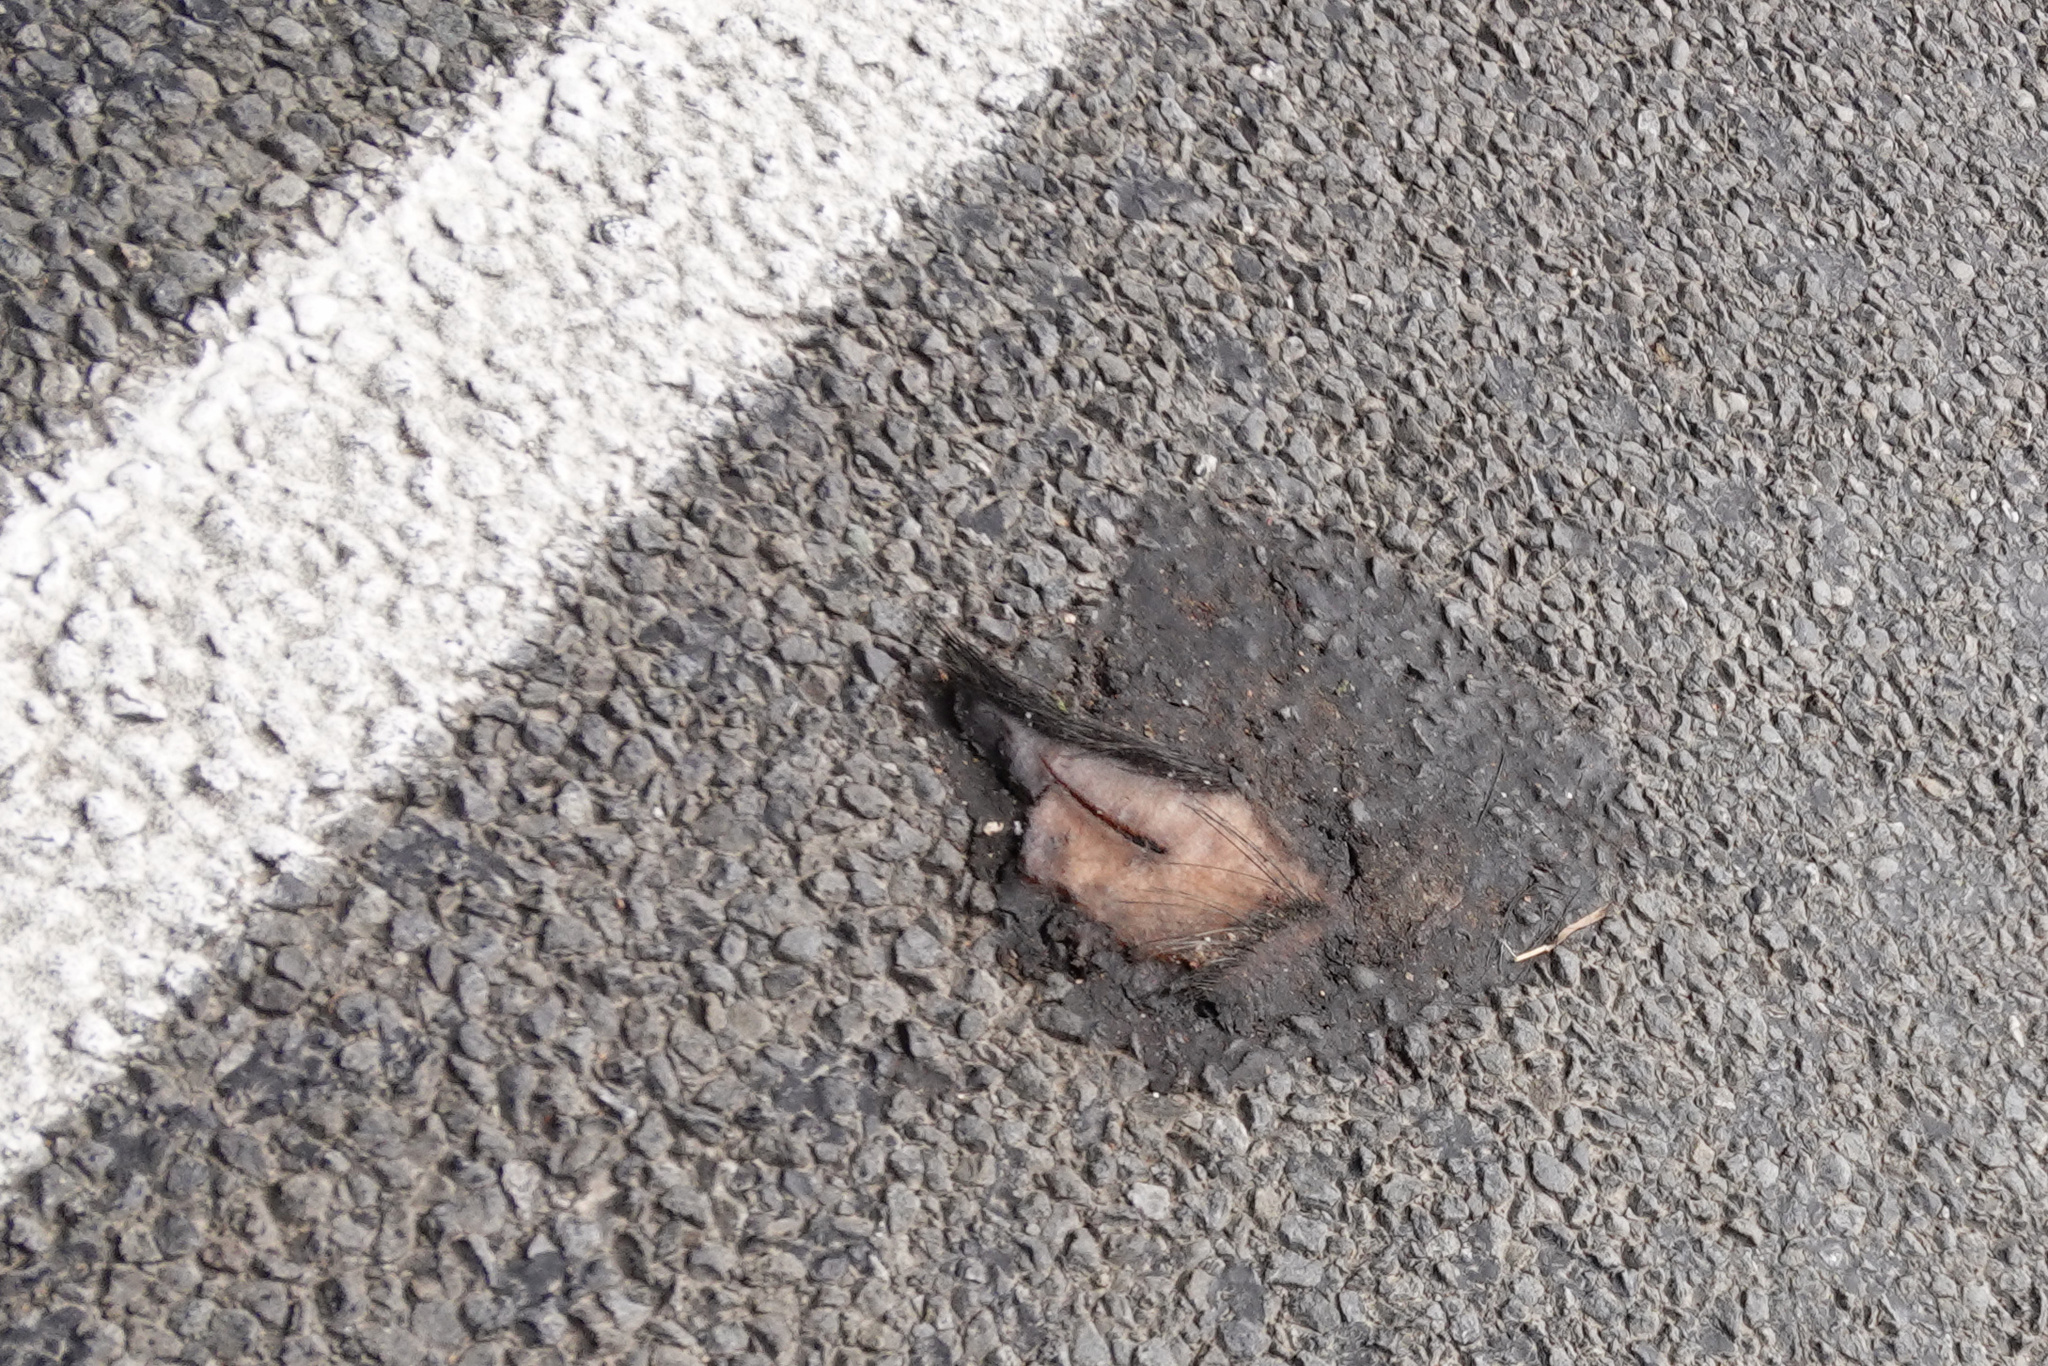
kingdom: Animalia
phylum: Chordata
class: Mammalia
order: Artiodactyla
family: Suidae
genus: Sus
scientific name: Sus scrofa
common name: Wild boar
